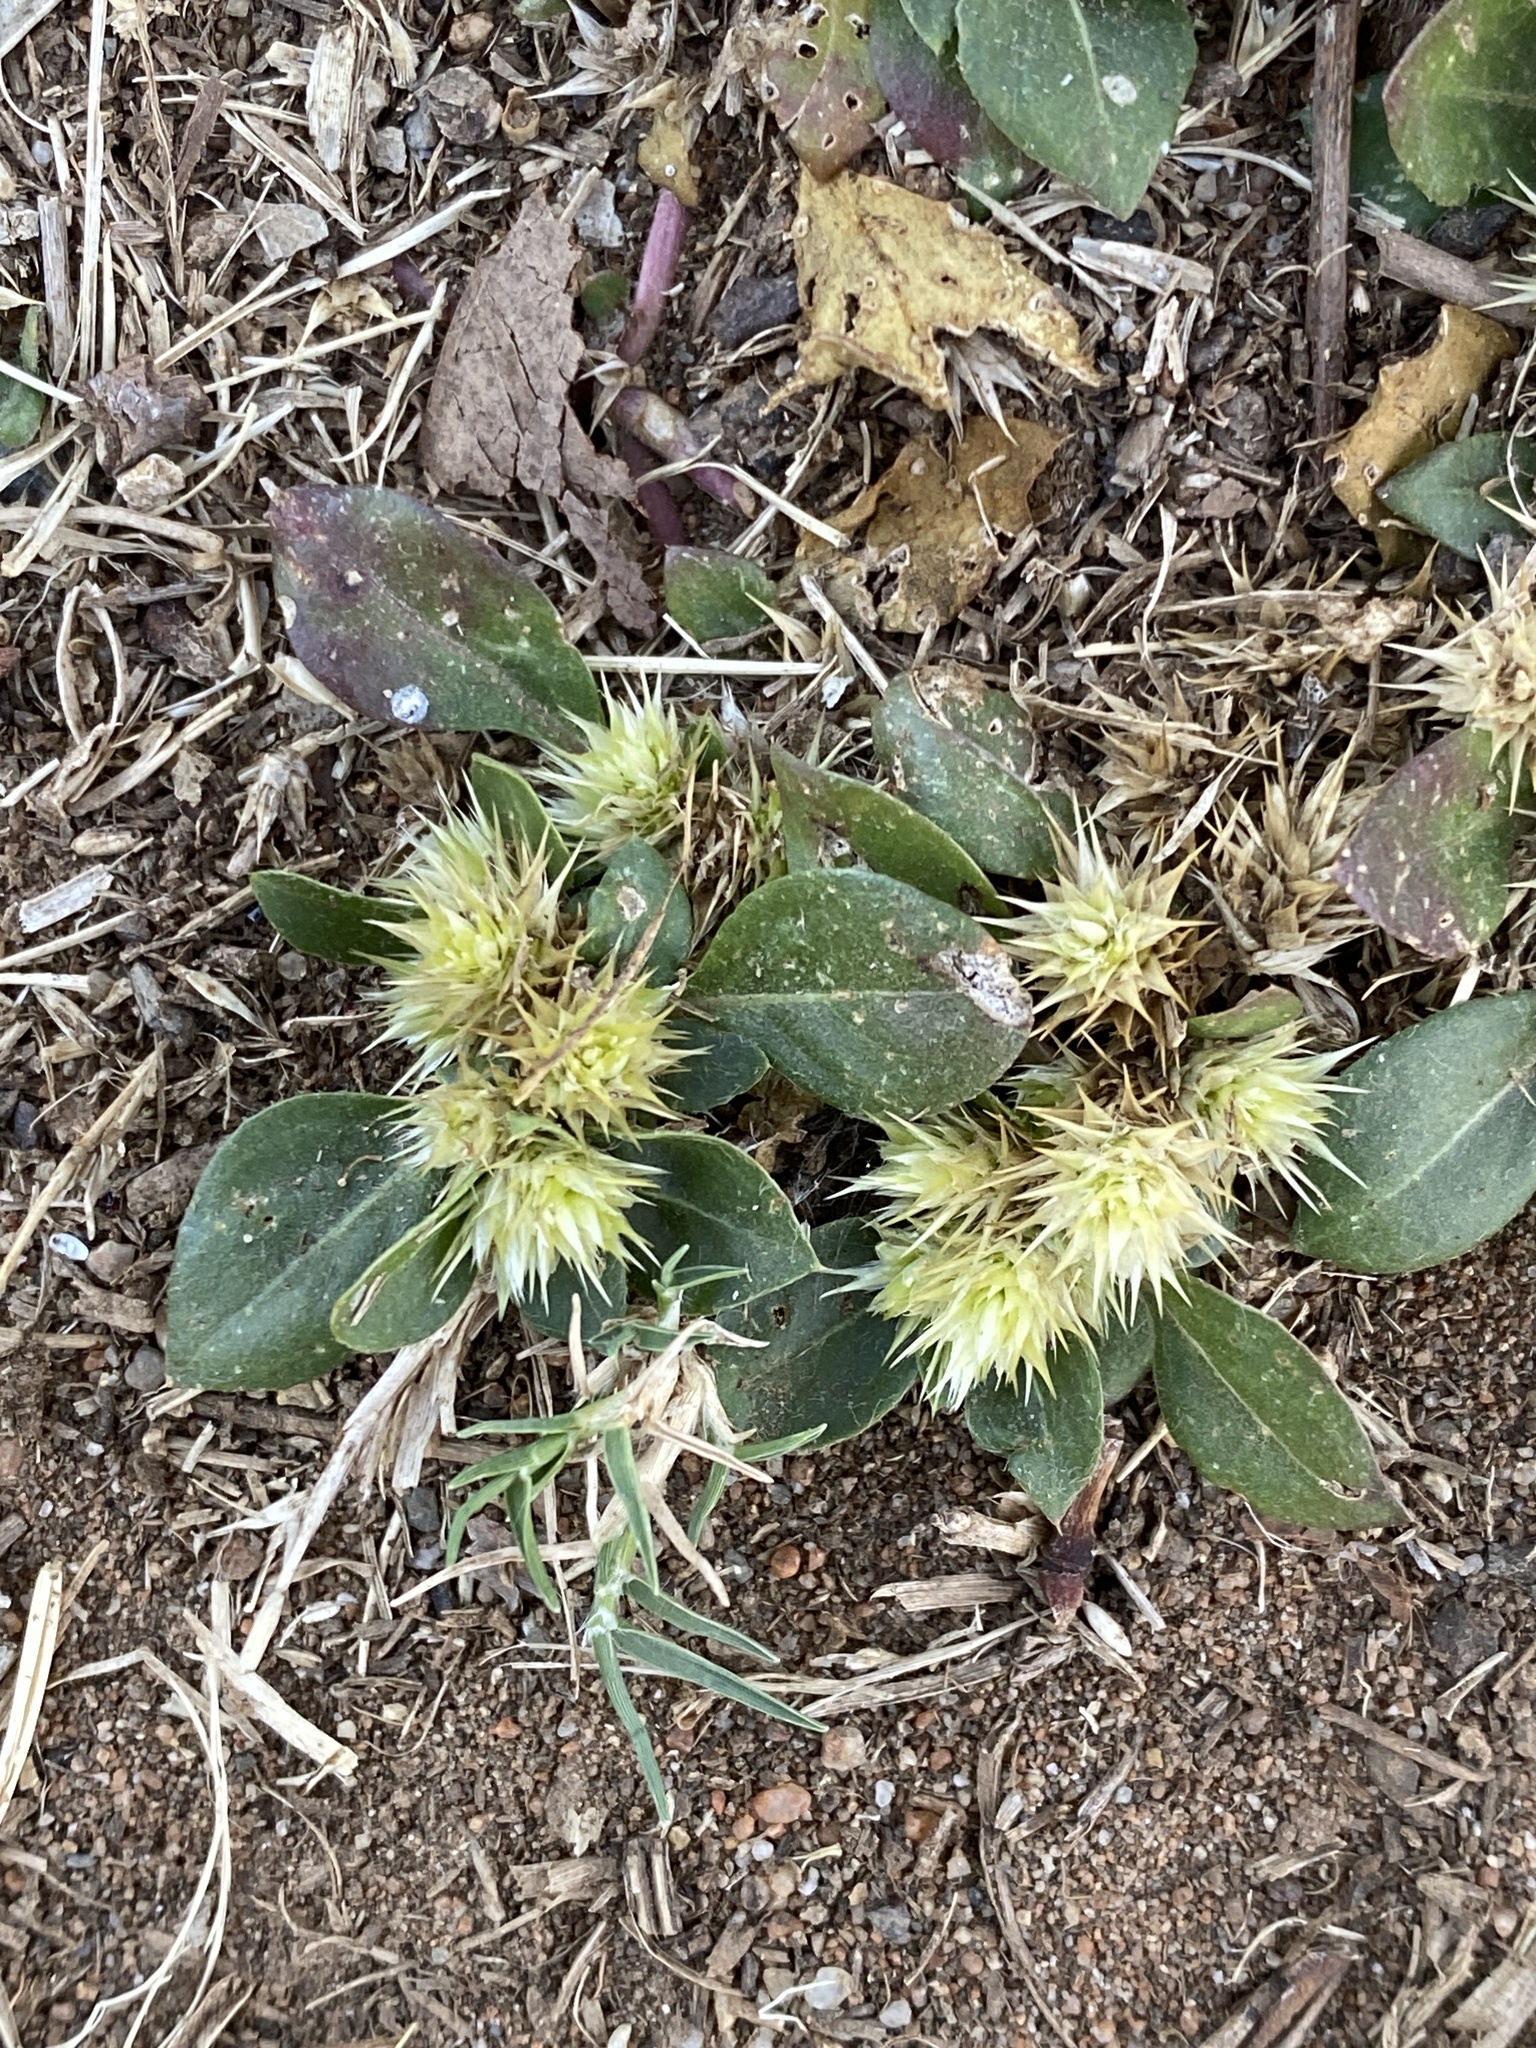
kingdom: Plantae
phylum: Tracheophyta
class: Magnoliopsida
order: Caryophyllales
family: Amaranthaceae
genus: Alternanthera
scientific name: Alternanthera pungens
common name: Khakiweed
